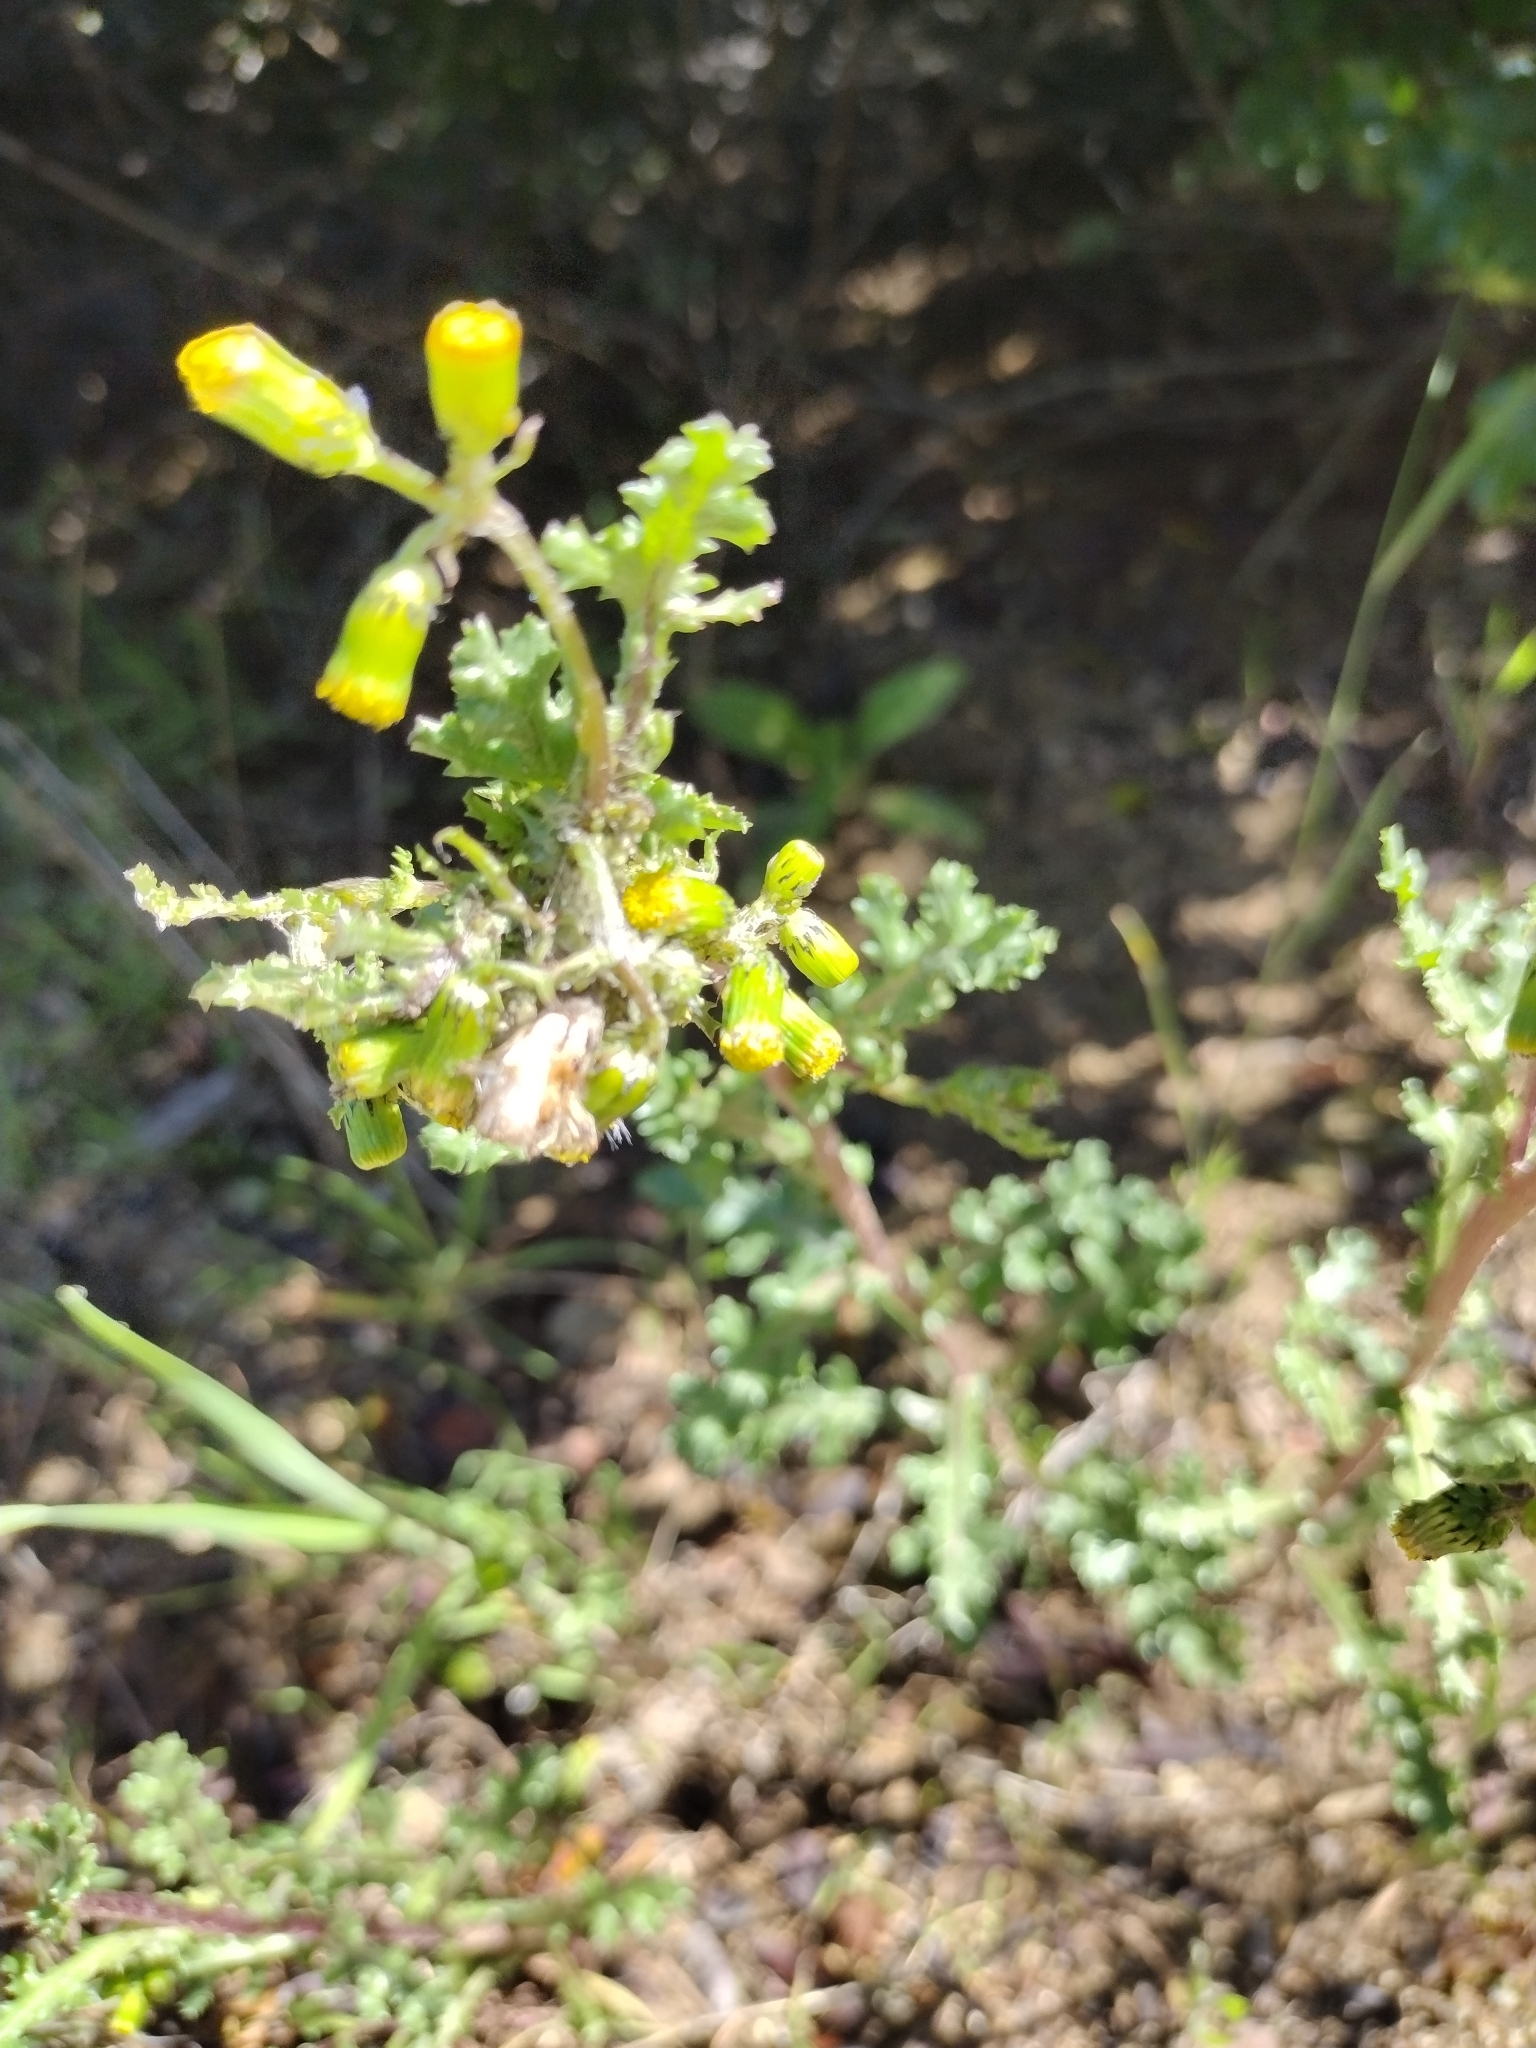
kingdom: Plantae
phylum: Tracheophyta
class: Magnoliopsida
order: Asterales
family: Asteraceae
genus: Senecio
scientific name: Senecio vulgaris
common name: Old-man-in-the-spring
